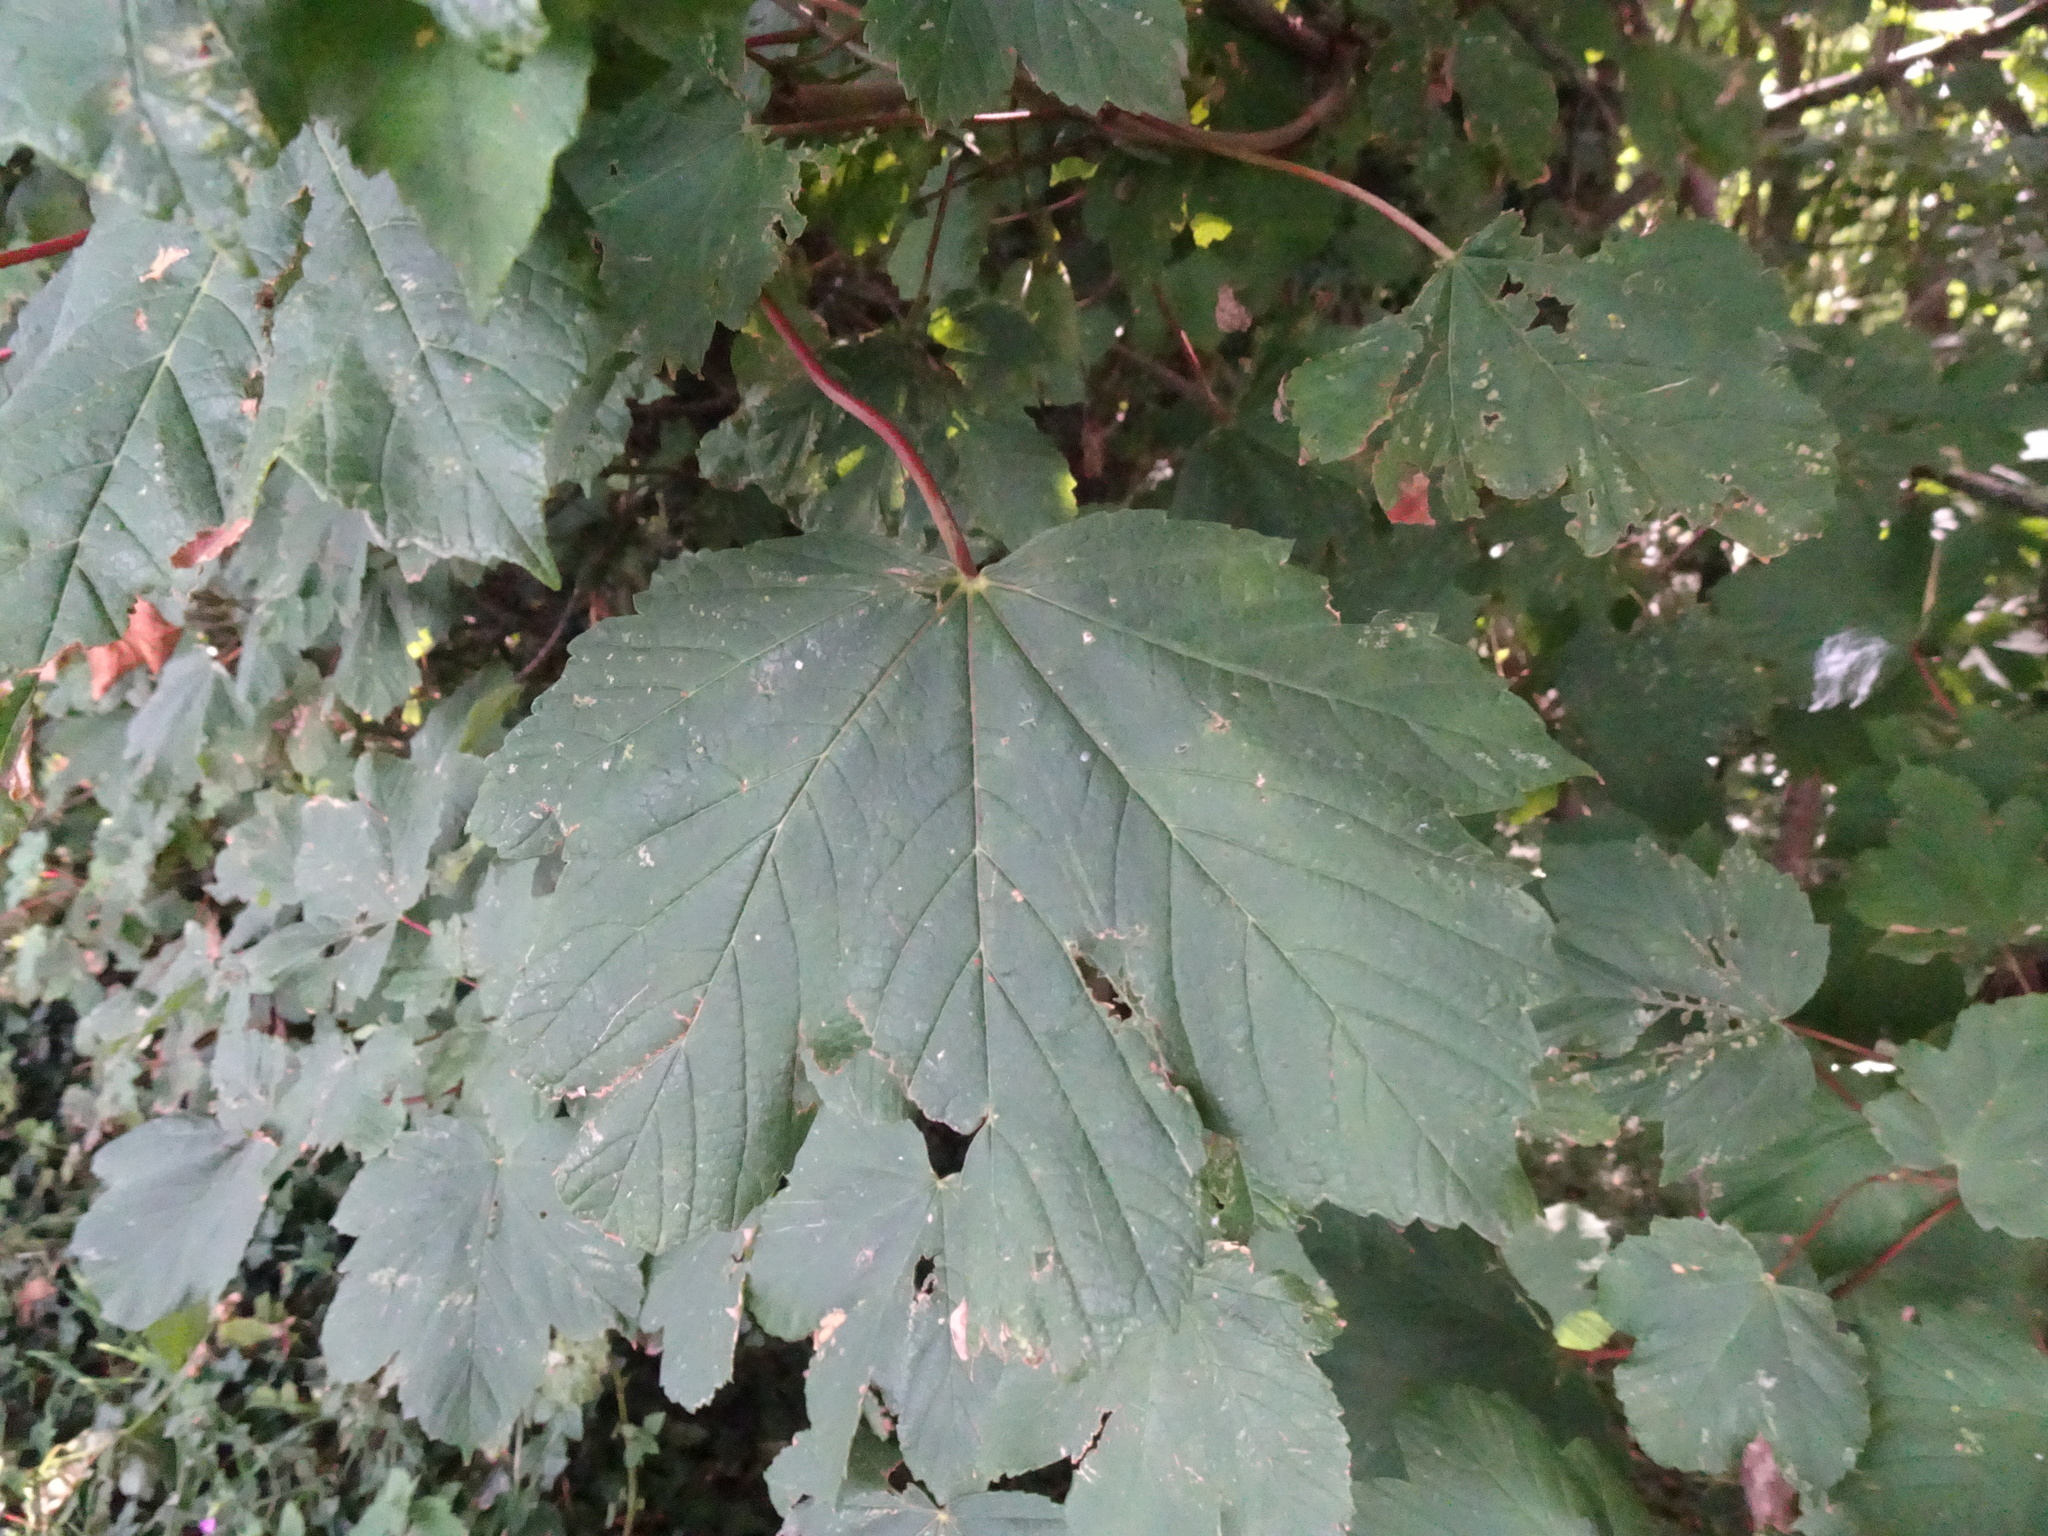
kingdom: Plantae
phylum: Tracheophyta
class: Magnoliopsida
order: Sapindales
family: Sapindaceae
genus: Acer
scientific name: Acer pseudoplatanus
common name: Sycamore
